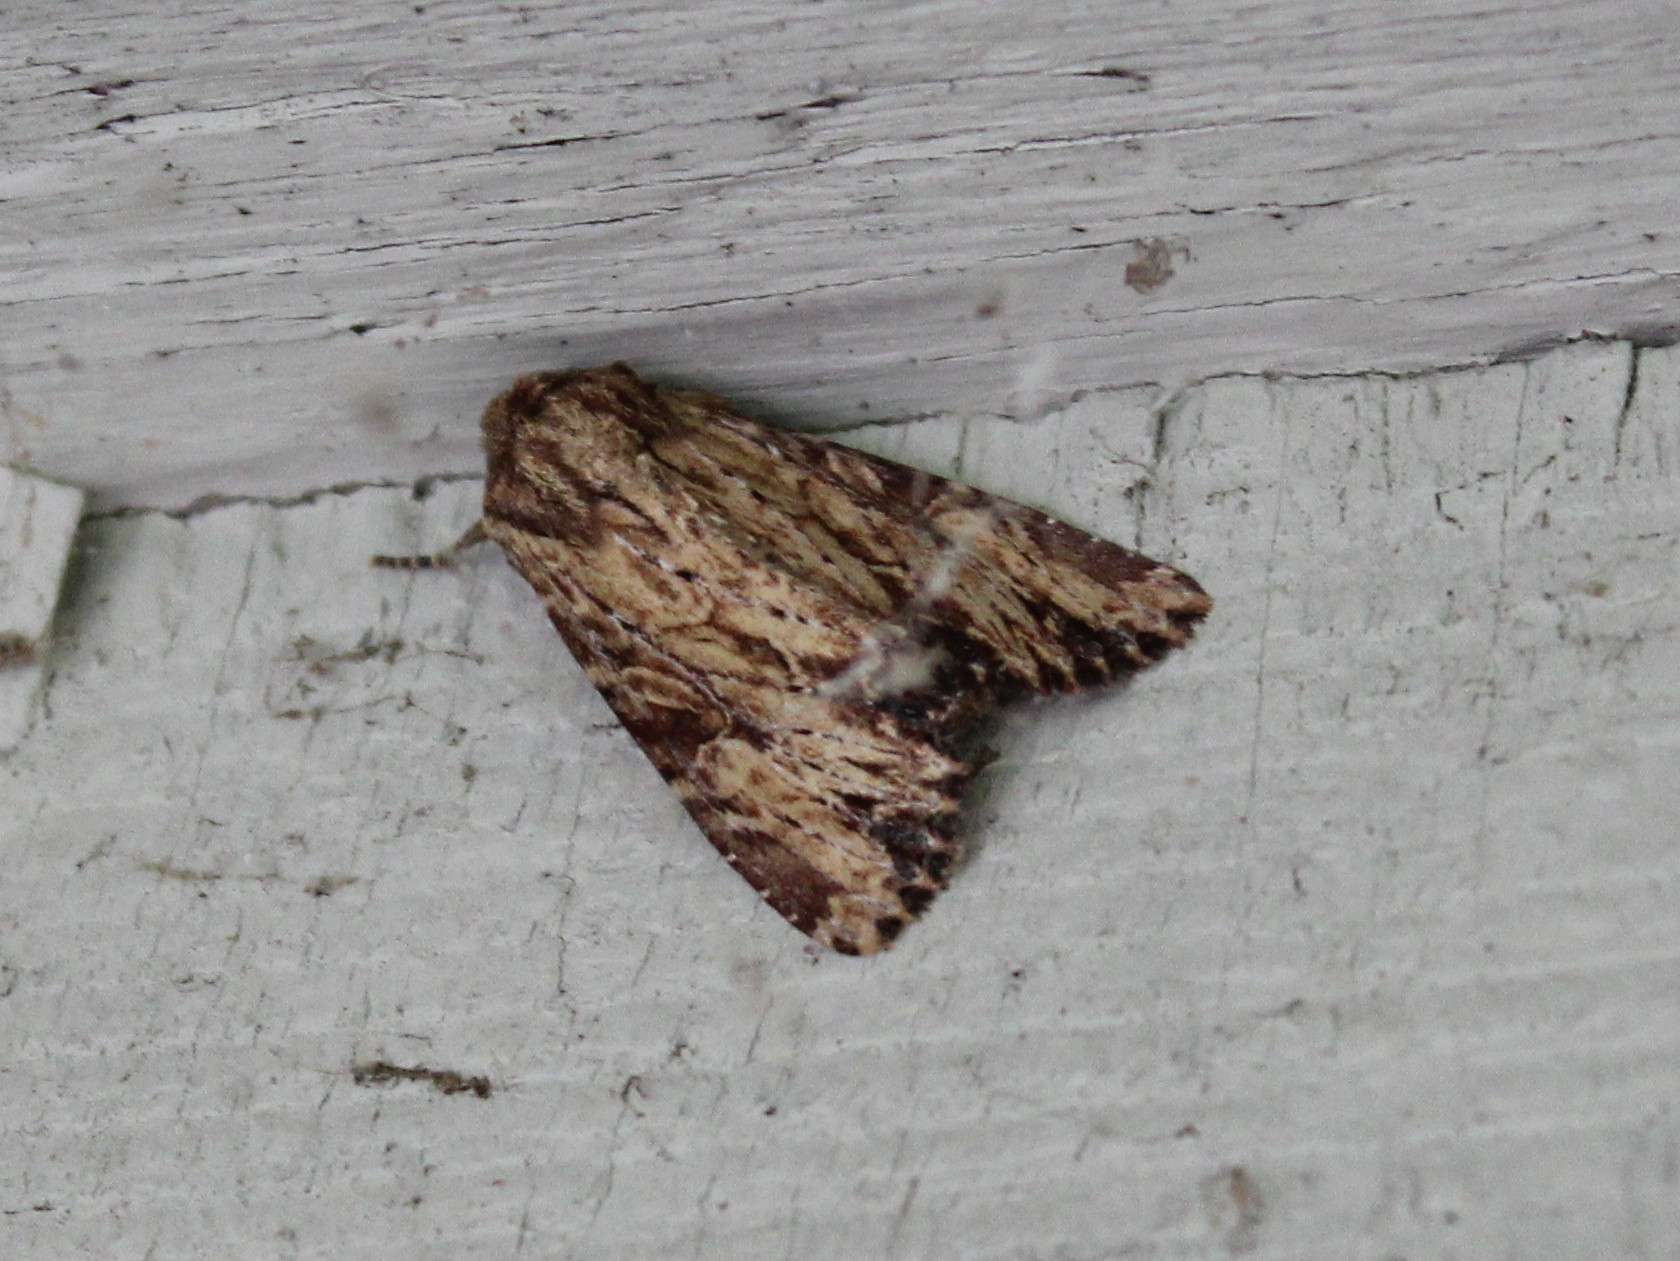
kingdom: Animalia
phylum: Arthropoda
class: Insecta
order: Lepidoptera
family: Noctuidae
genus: Apamea
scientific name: Apamea lignicolora
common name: Wood-colored apamea moth
